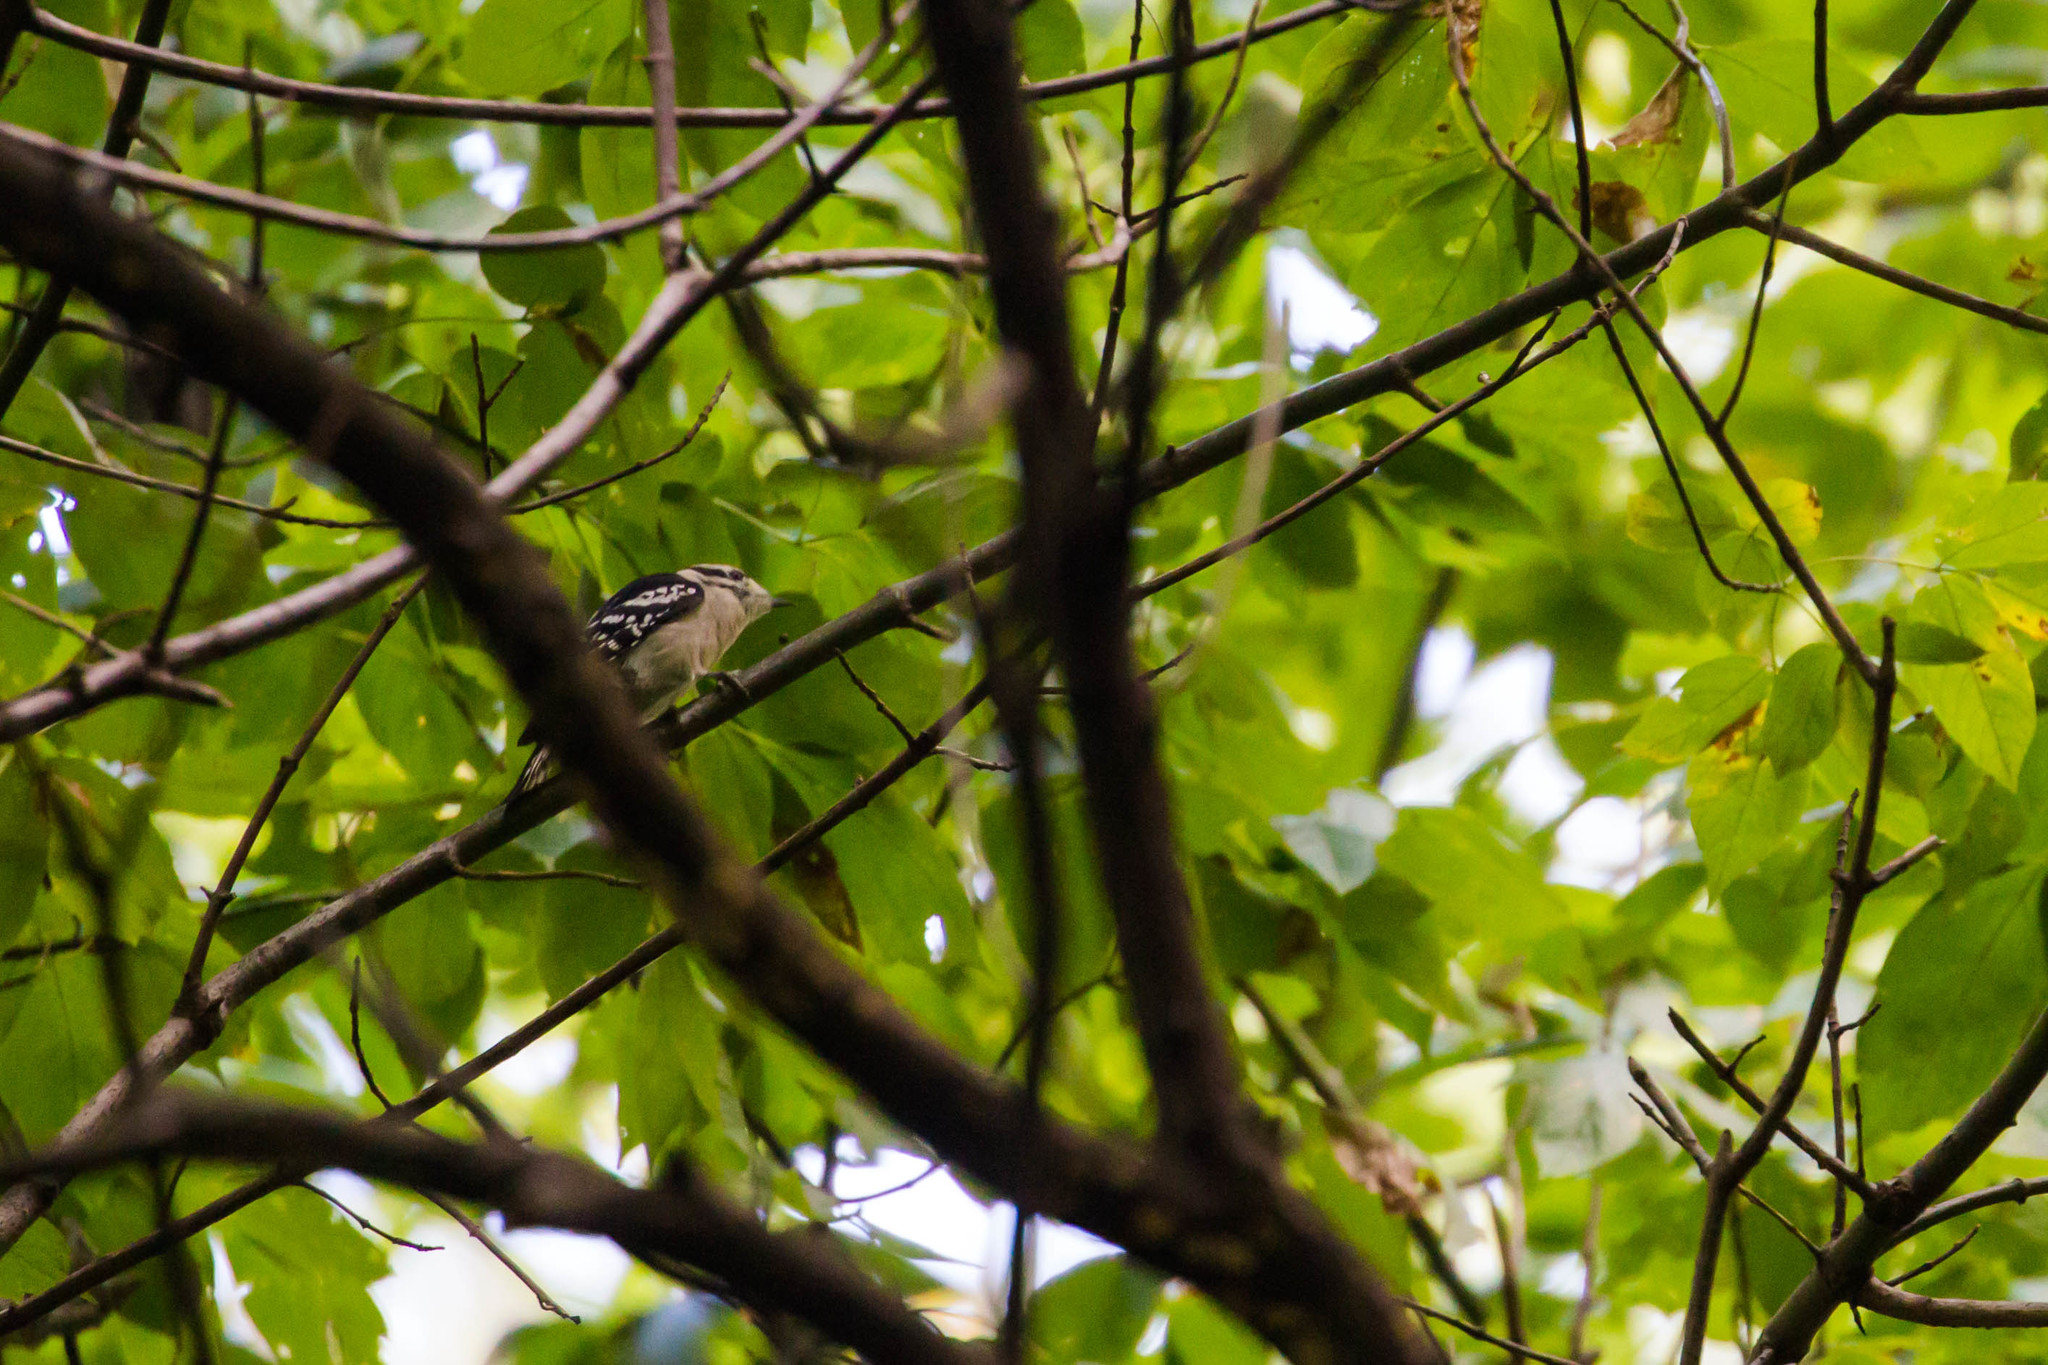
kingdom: Animalia
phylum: Chordata
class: Aves
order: Piciformes
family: Picidae
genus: Dryobates
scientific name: Dryobates pubescens
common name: Downy woodpecker
